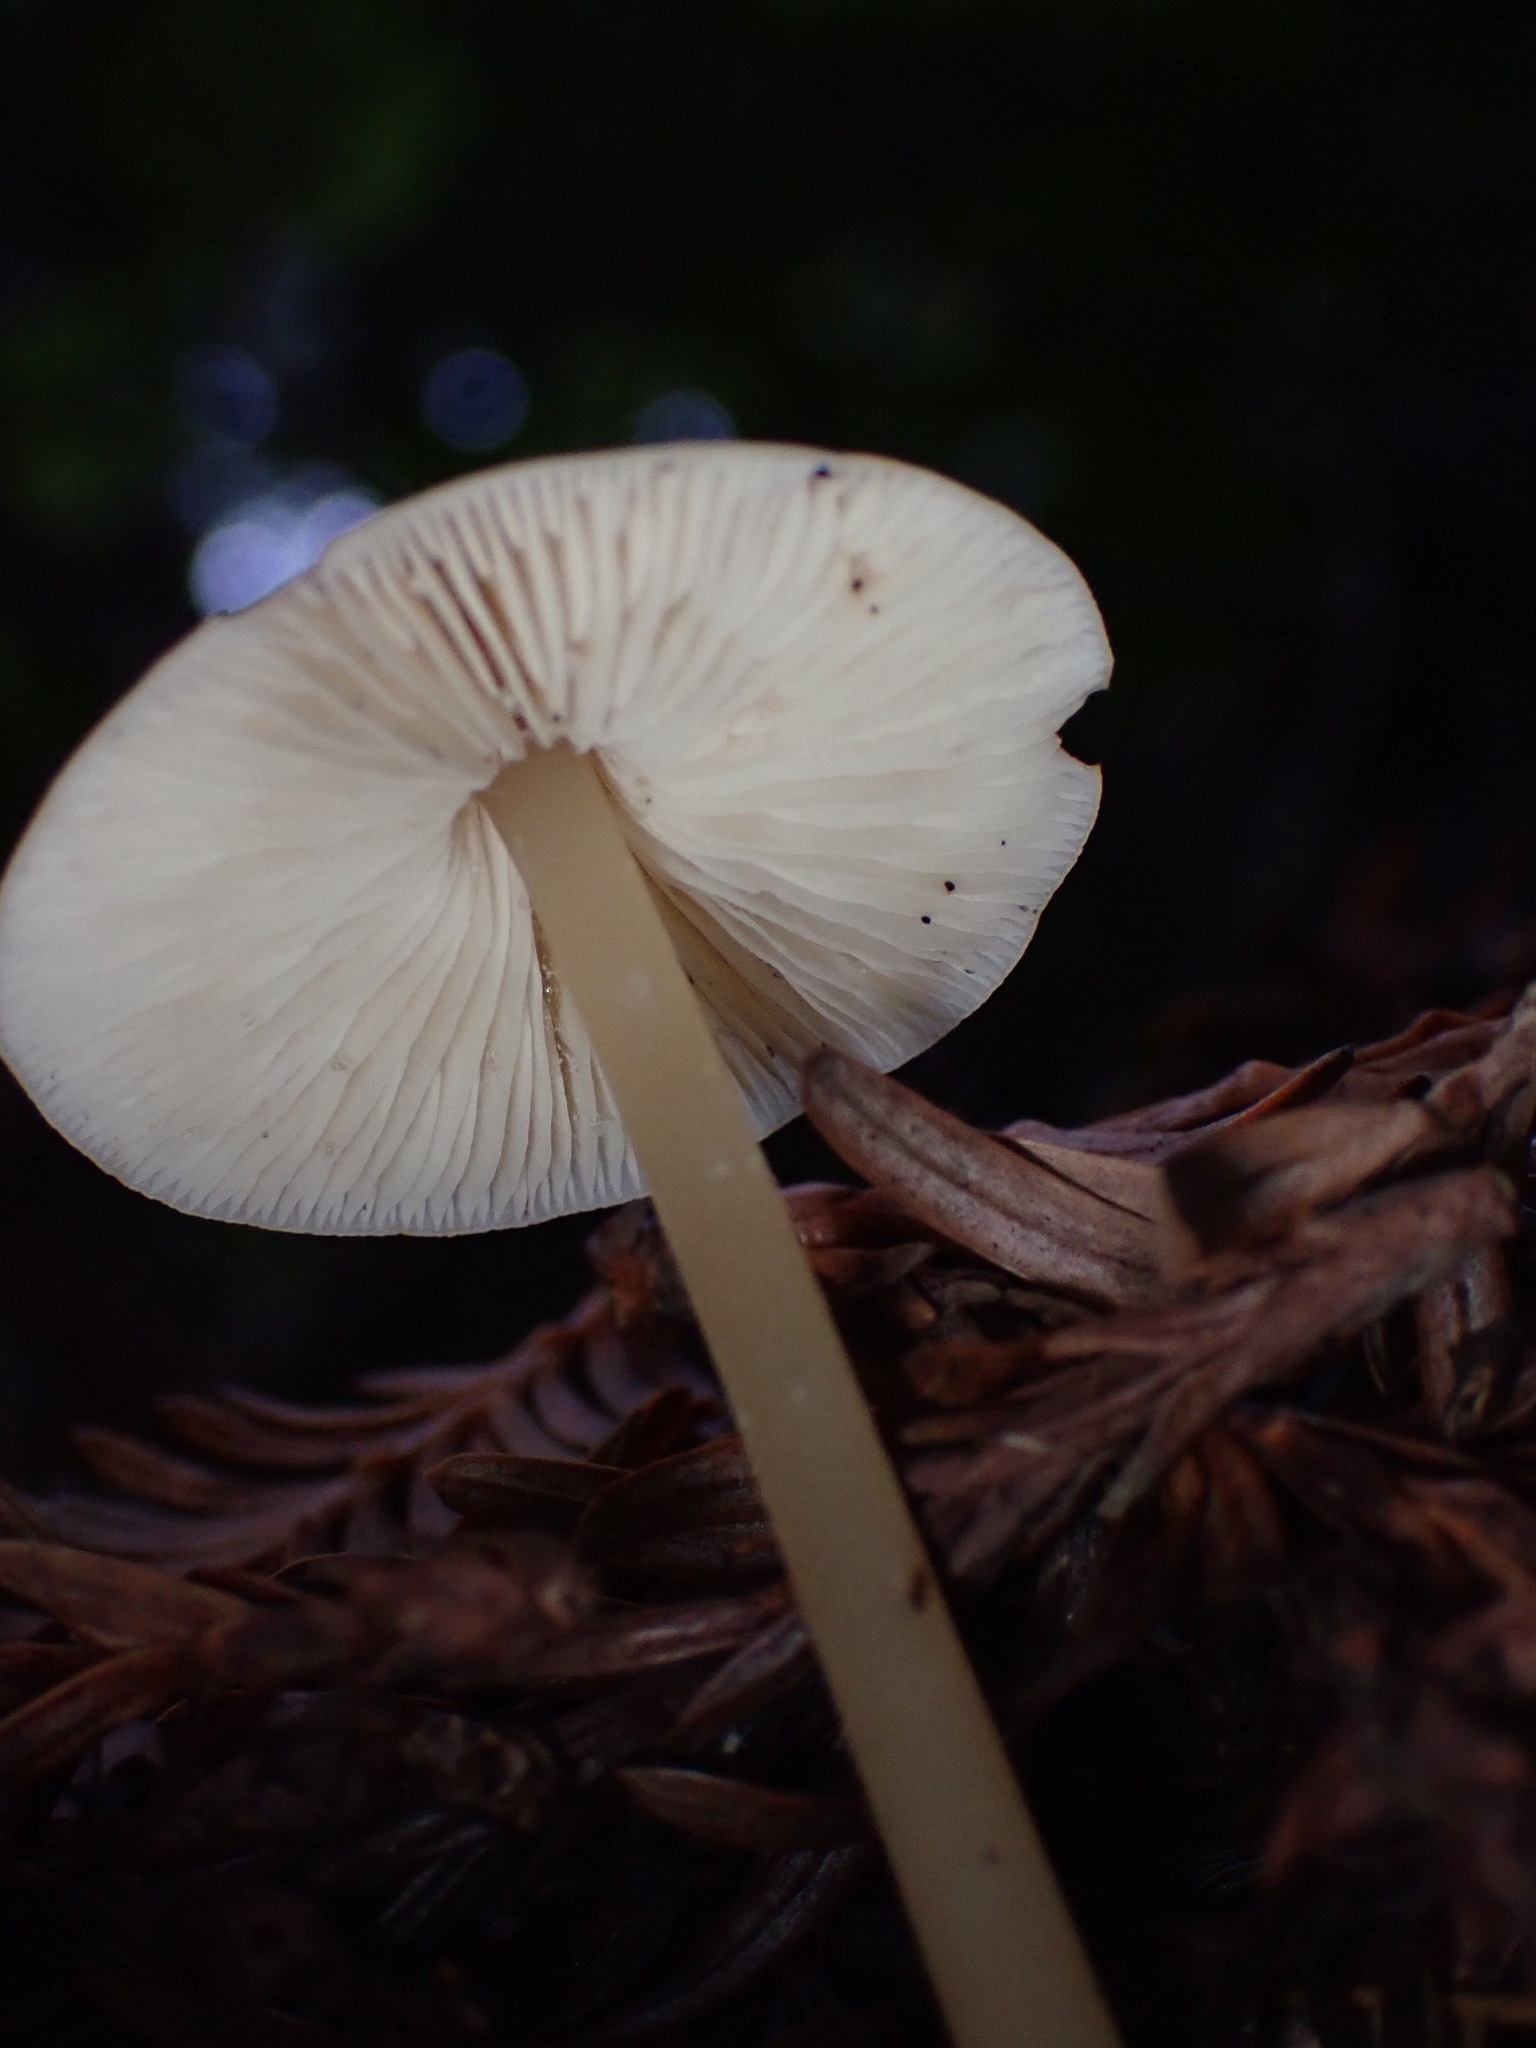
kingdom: Fungi
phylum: Basidiomycota
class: Agaricomycetes
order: Agaricales
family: Tricholomataceae
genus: Caulorhiza
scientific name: Caulorhiza umbonata
